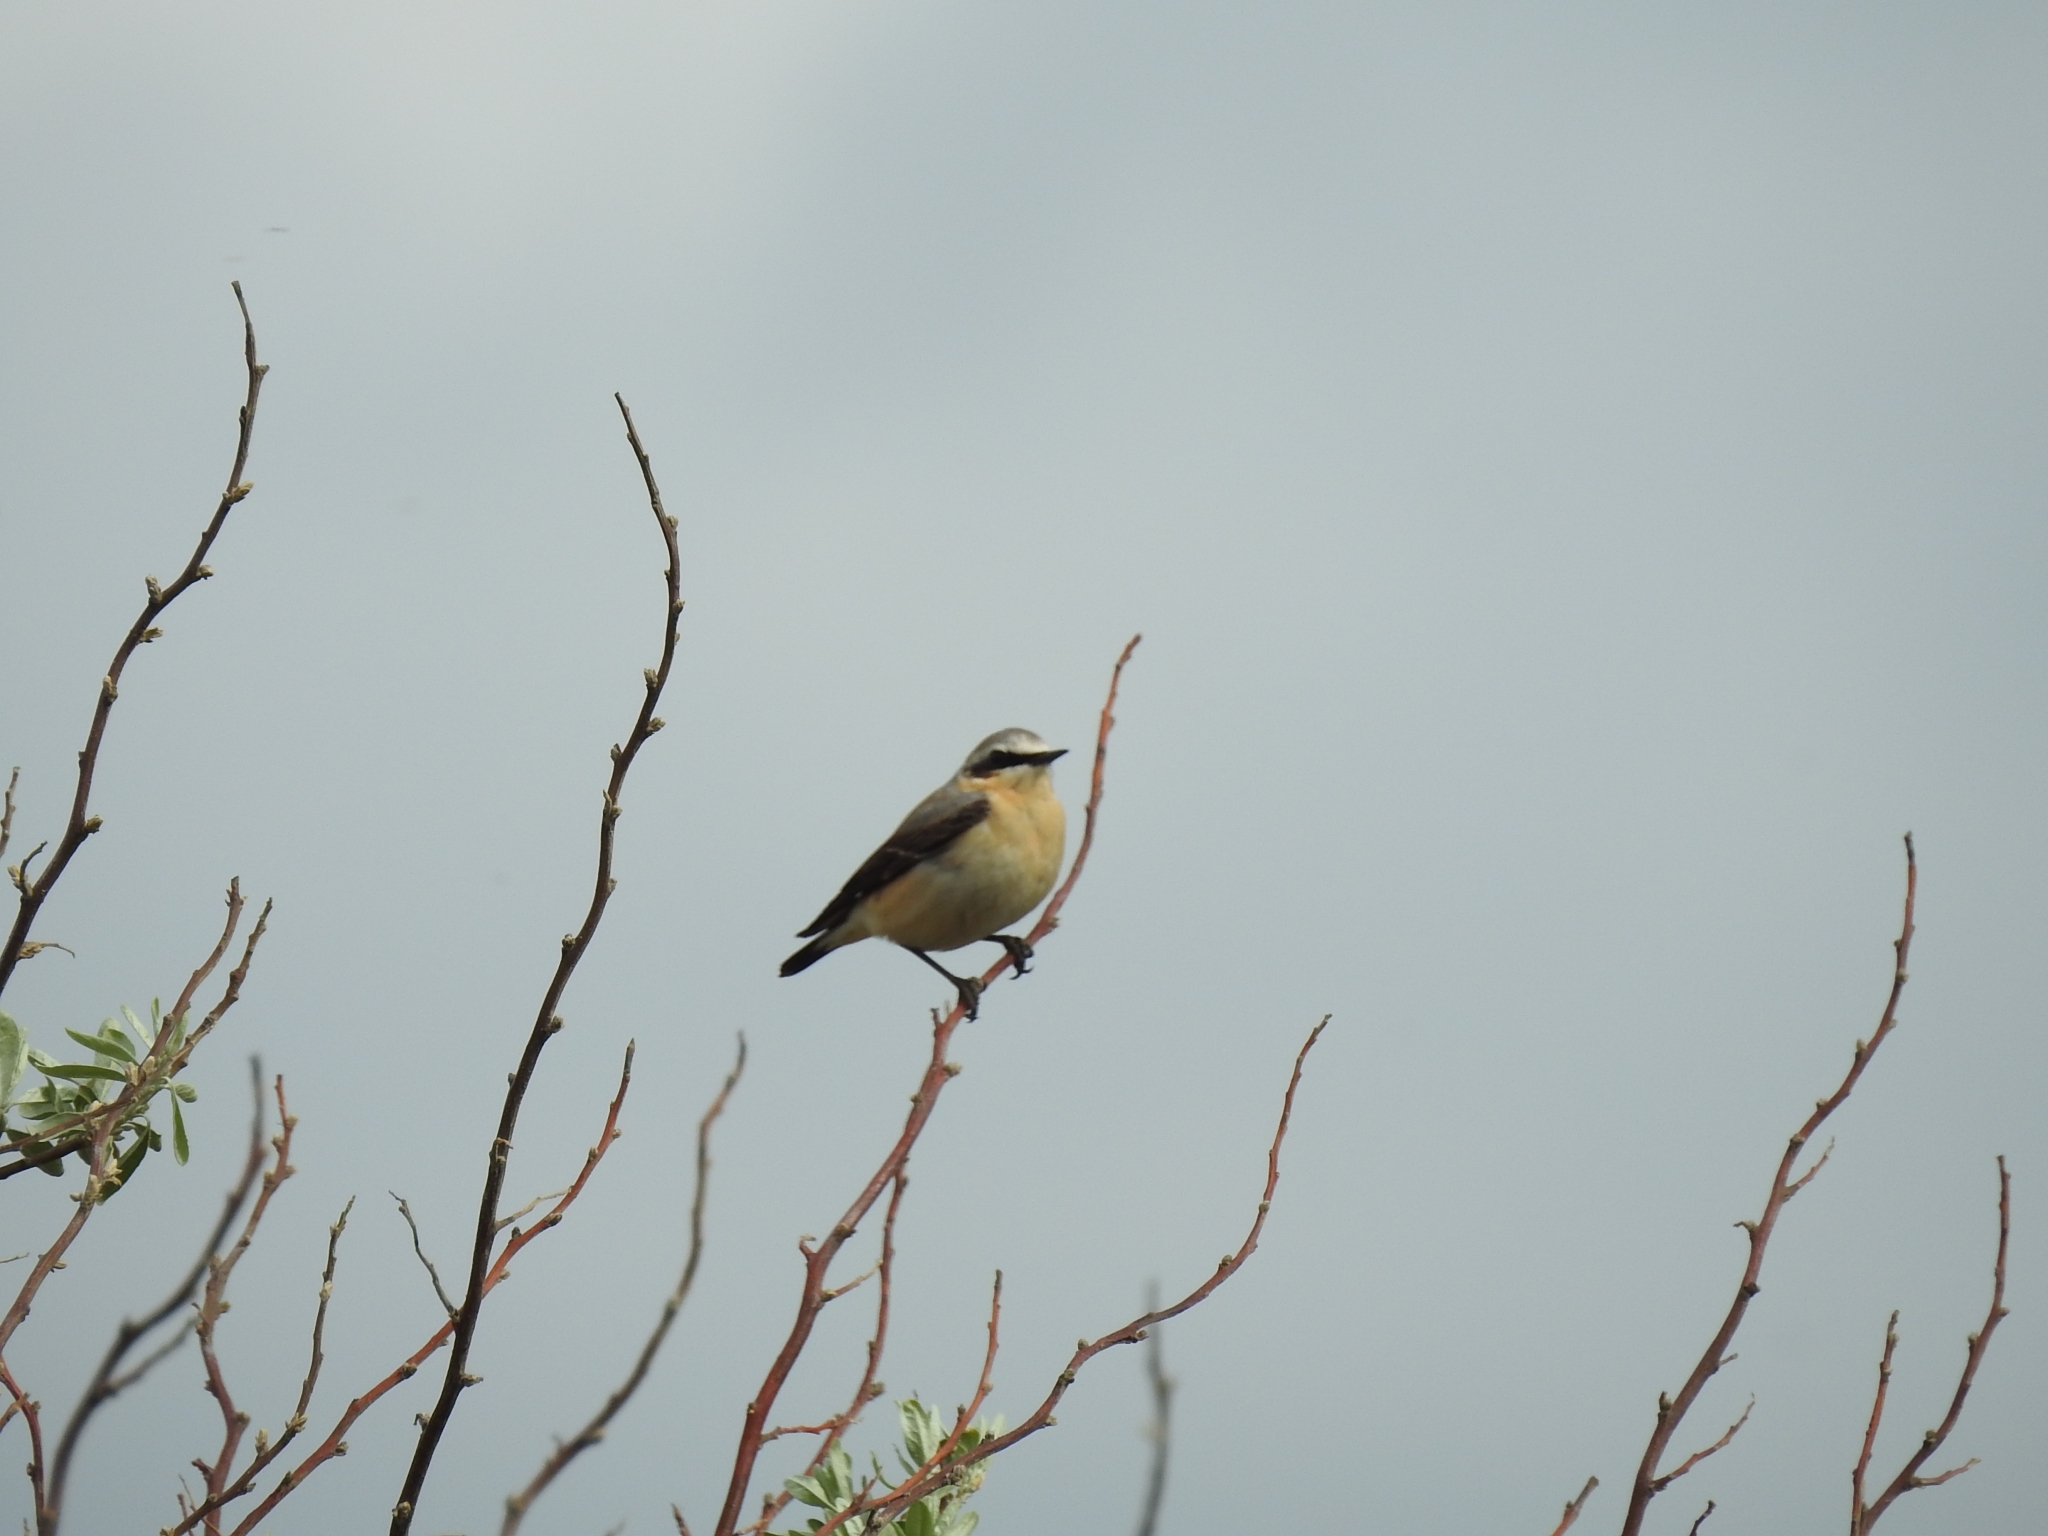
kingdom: Animalia
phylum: Chordata
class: Aves
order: Passeriformes
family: Muscicapidae
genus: Oenanthe
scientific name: Oenanthe oenanthe
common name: Northern wheatear
